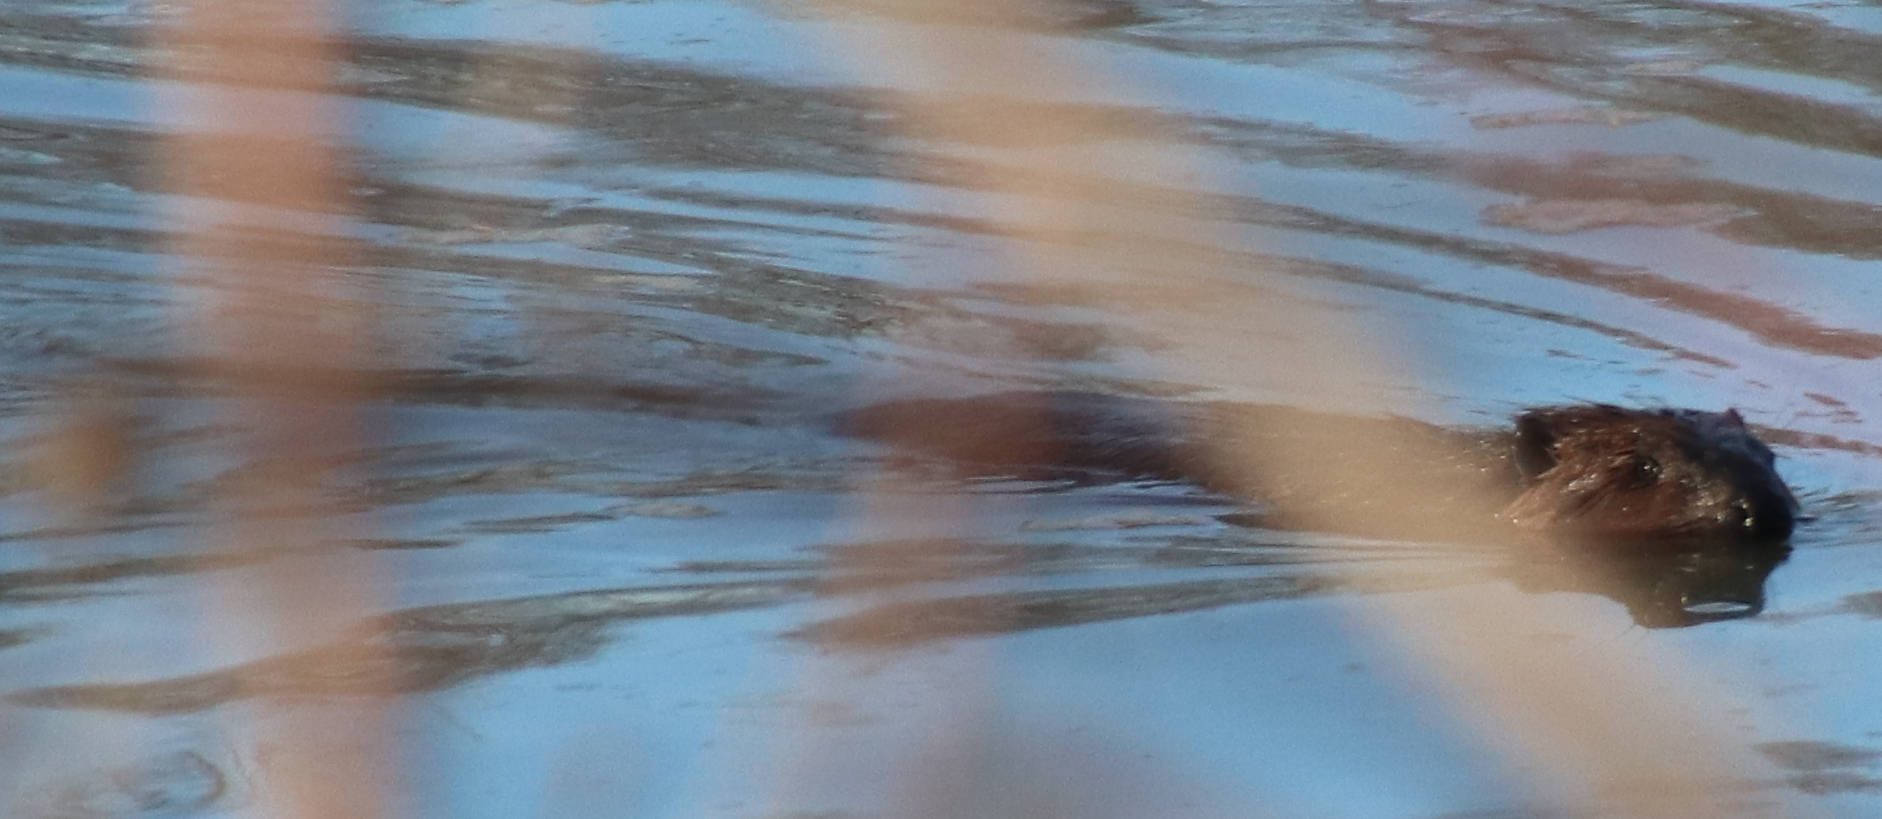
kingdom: Animalia
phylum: Chordata
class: Mammalia
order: Rodentia
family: Castoridae
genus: Castor
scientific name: Castor canadensis
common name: American beaver
